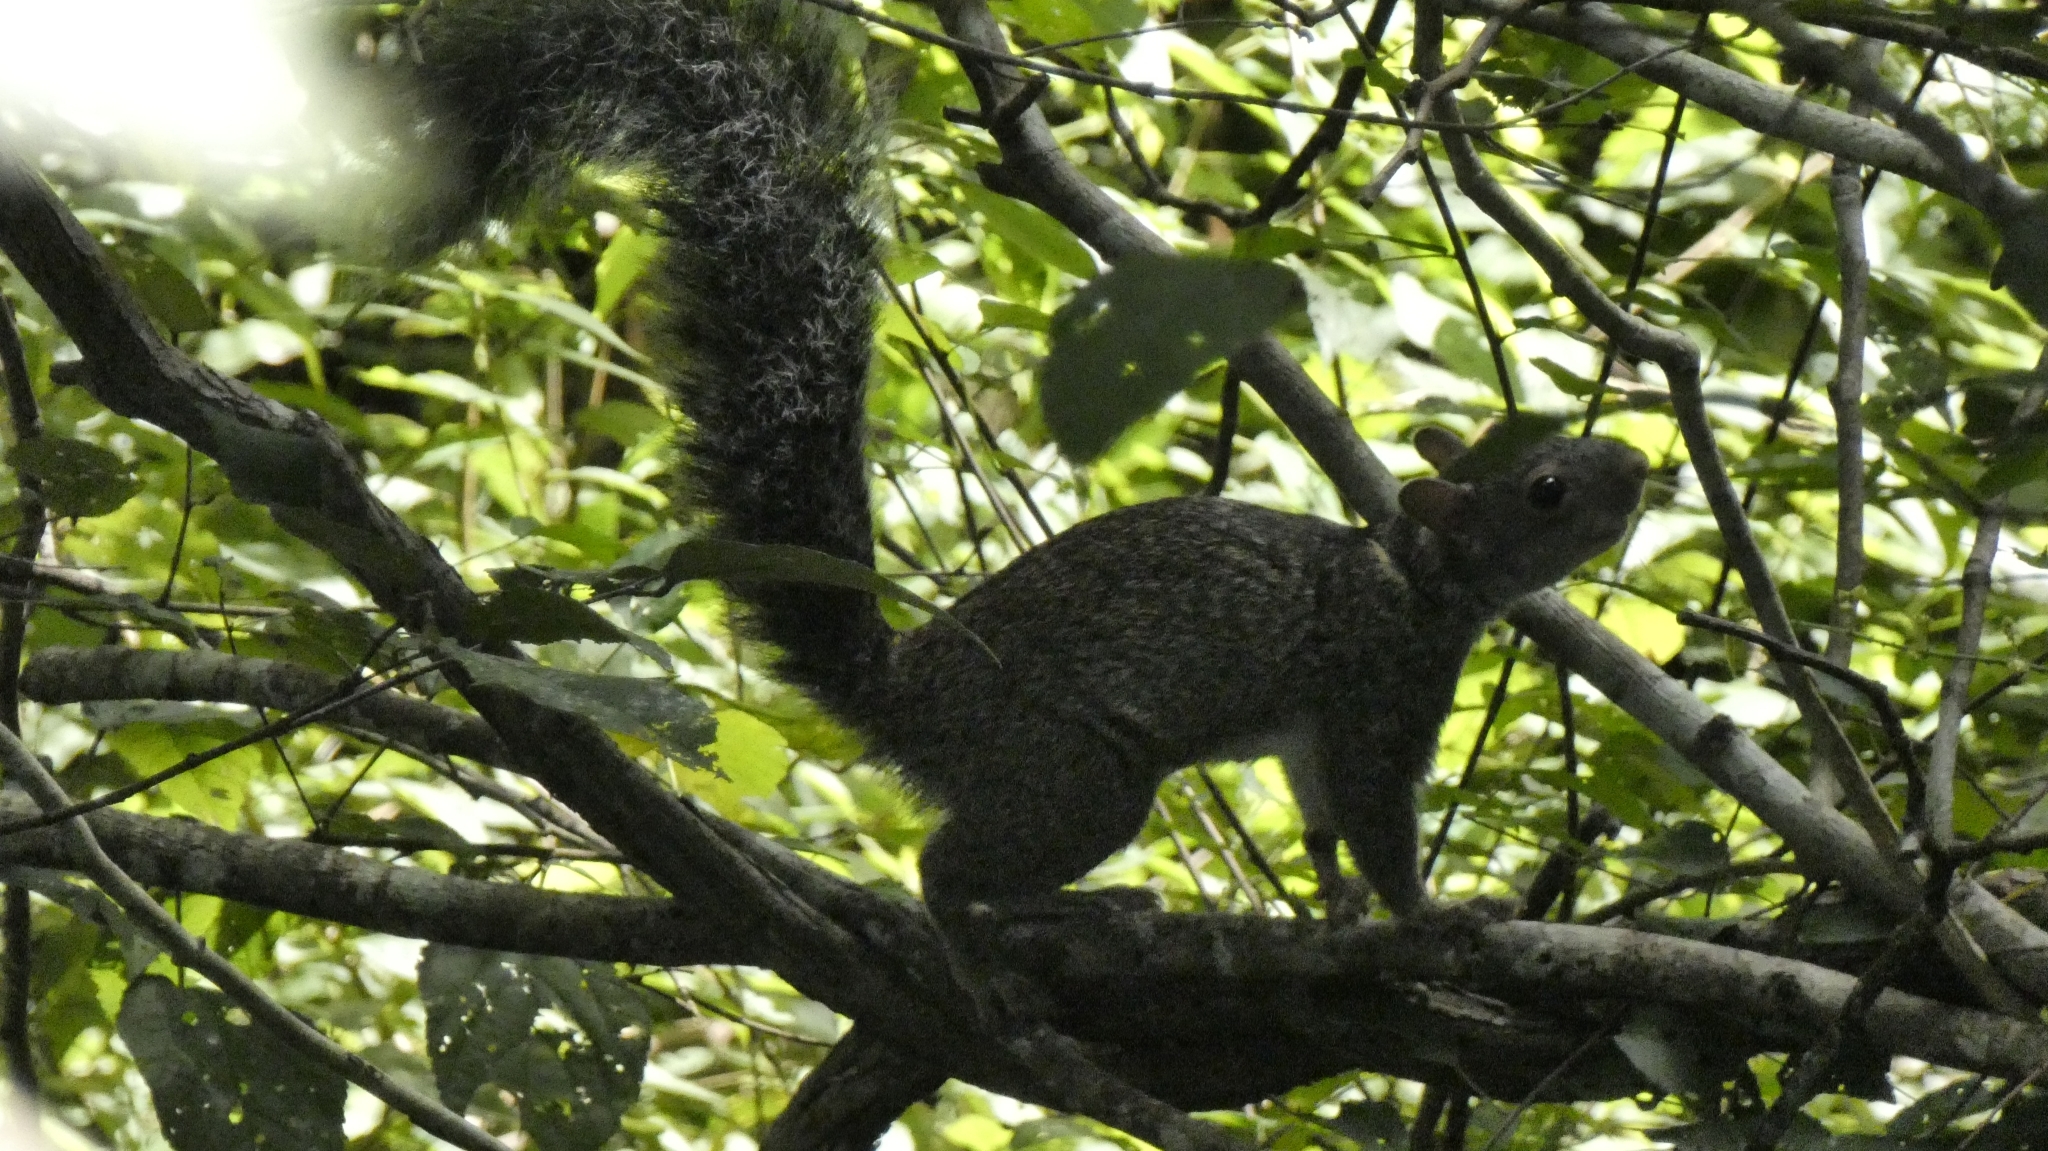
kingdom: Animalia
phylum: Chordata
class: Mammalia
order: Rodentia
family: Sciuridae
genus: Sciurus
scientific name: Sciurus yucatanensis
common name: Yucatan squirrel
